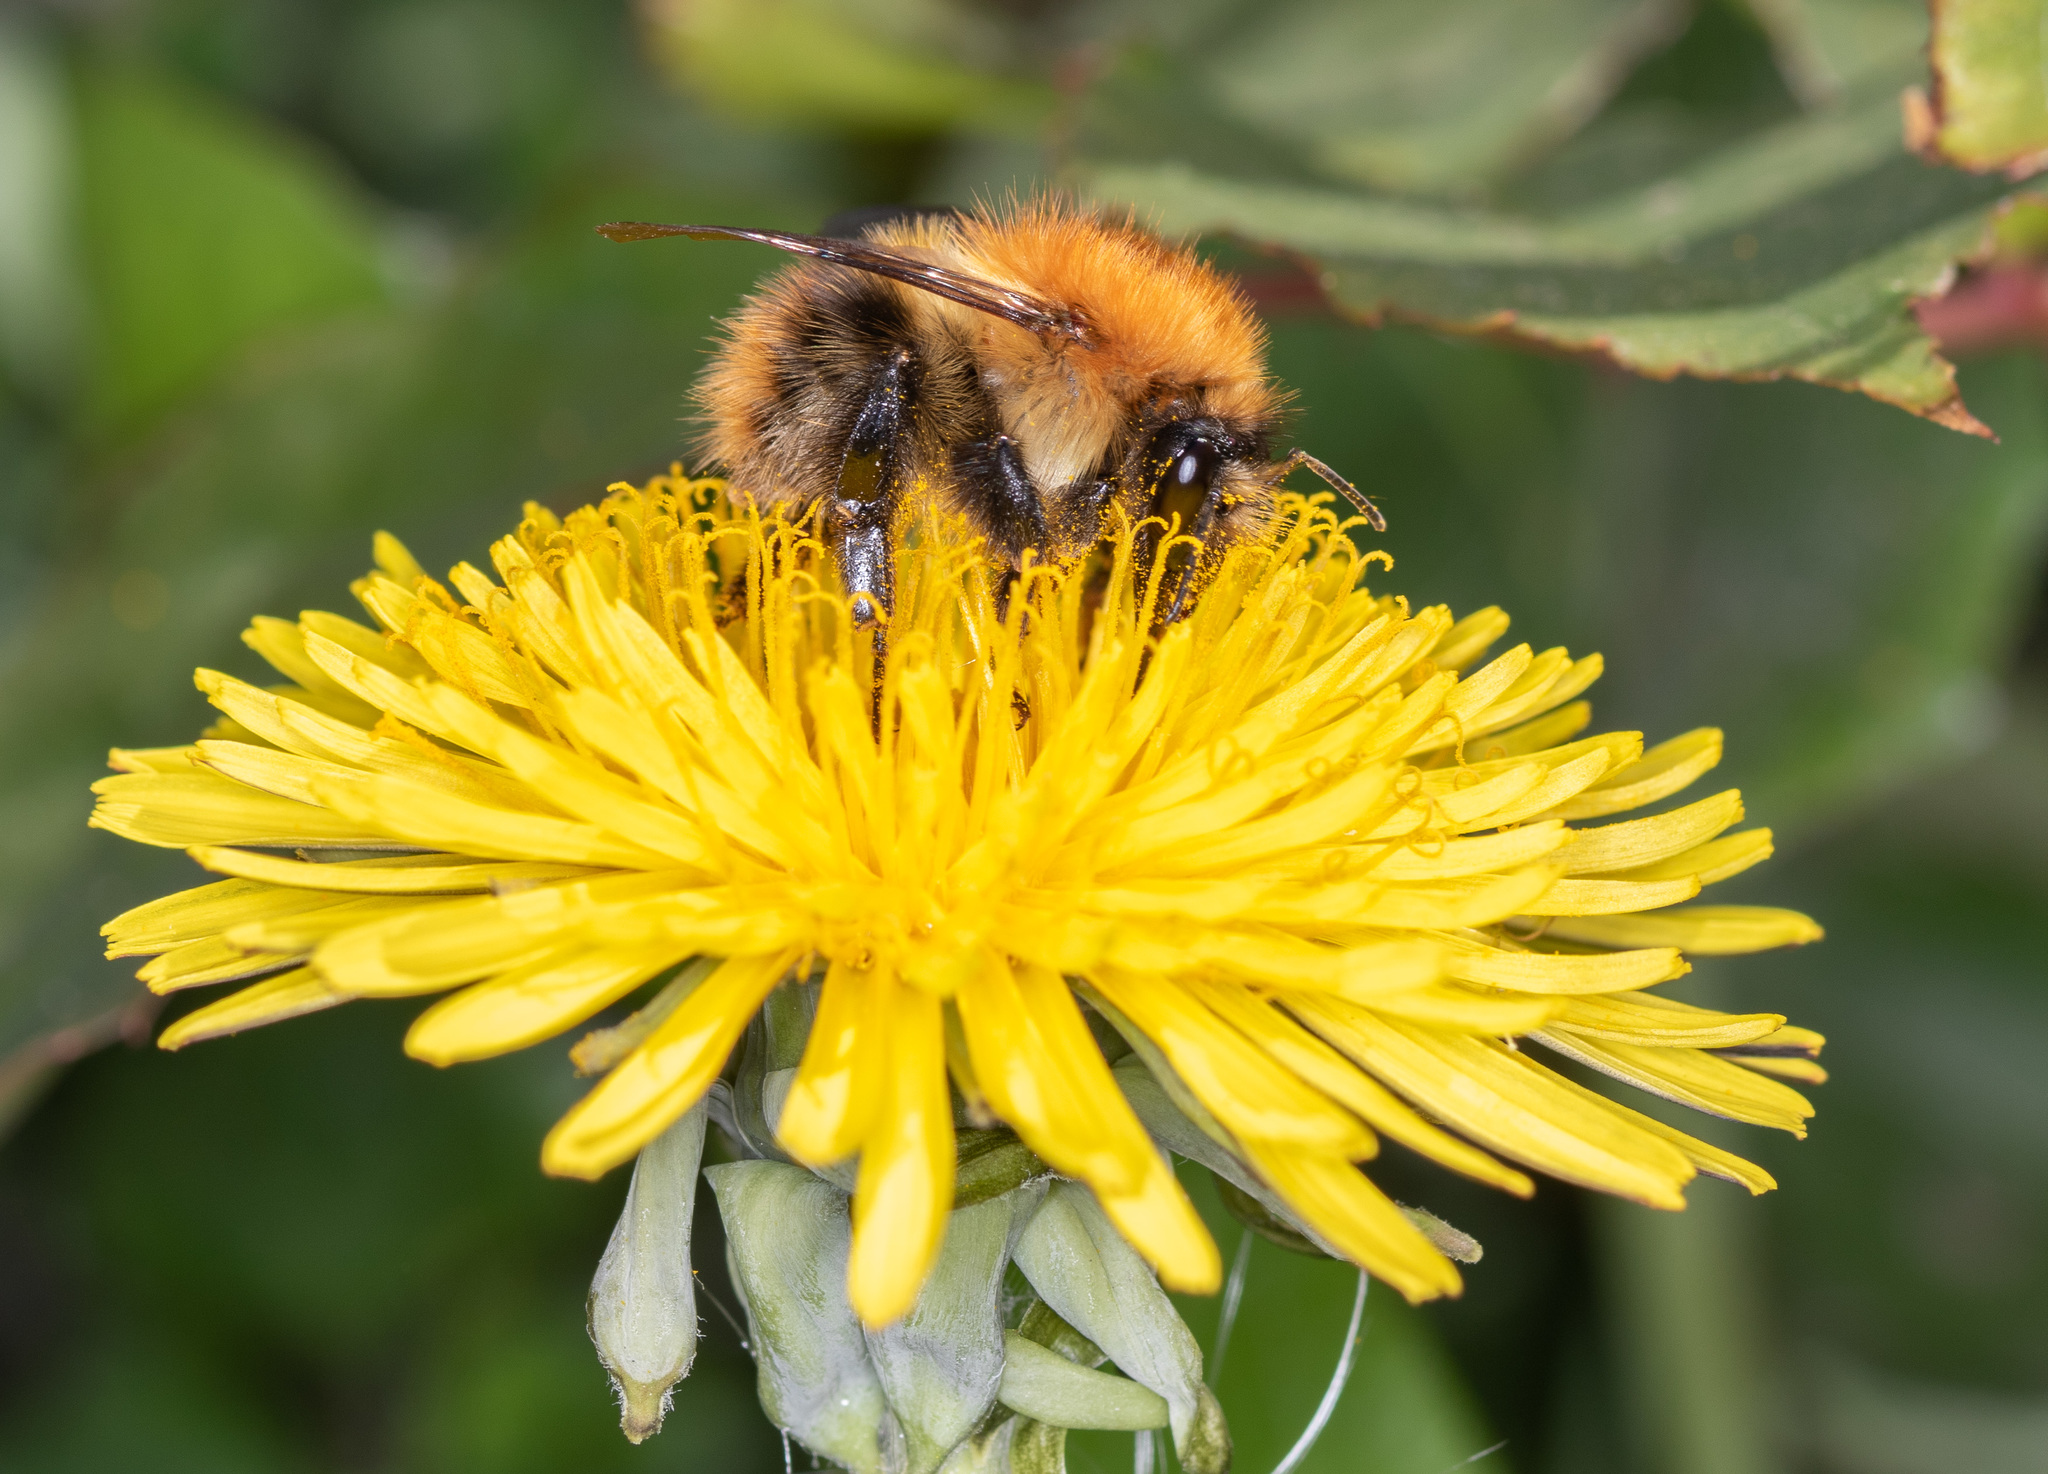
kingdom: Animalia
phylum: Arthropoda
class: Insecta
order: Hymenoptera
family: Apidae
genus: Bombus
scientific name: Bombus pascuorum
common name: Common carder bee
